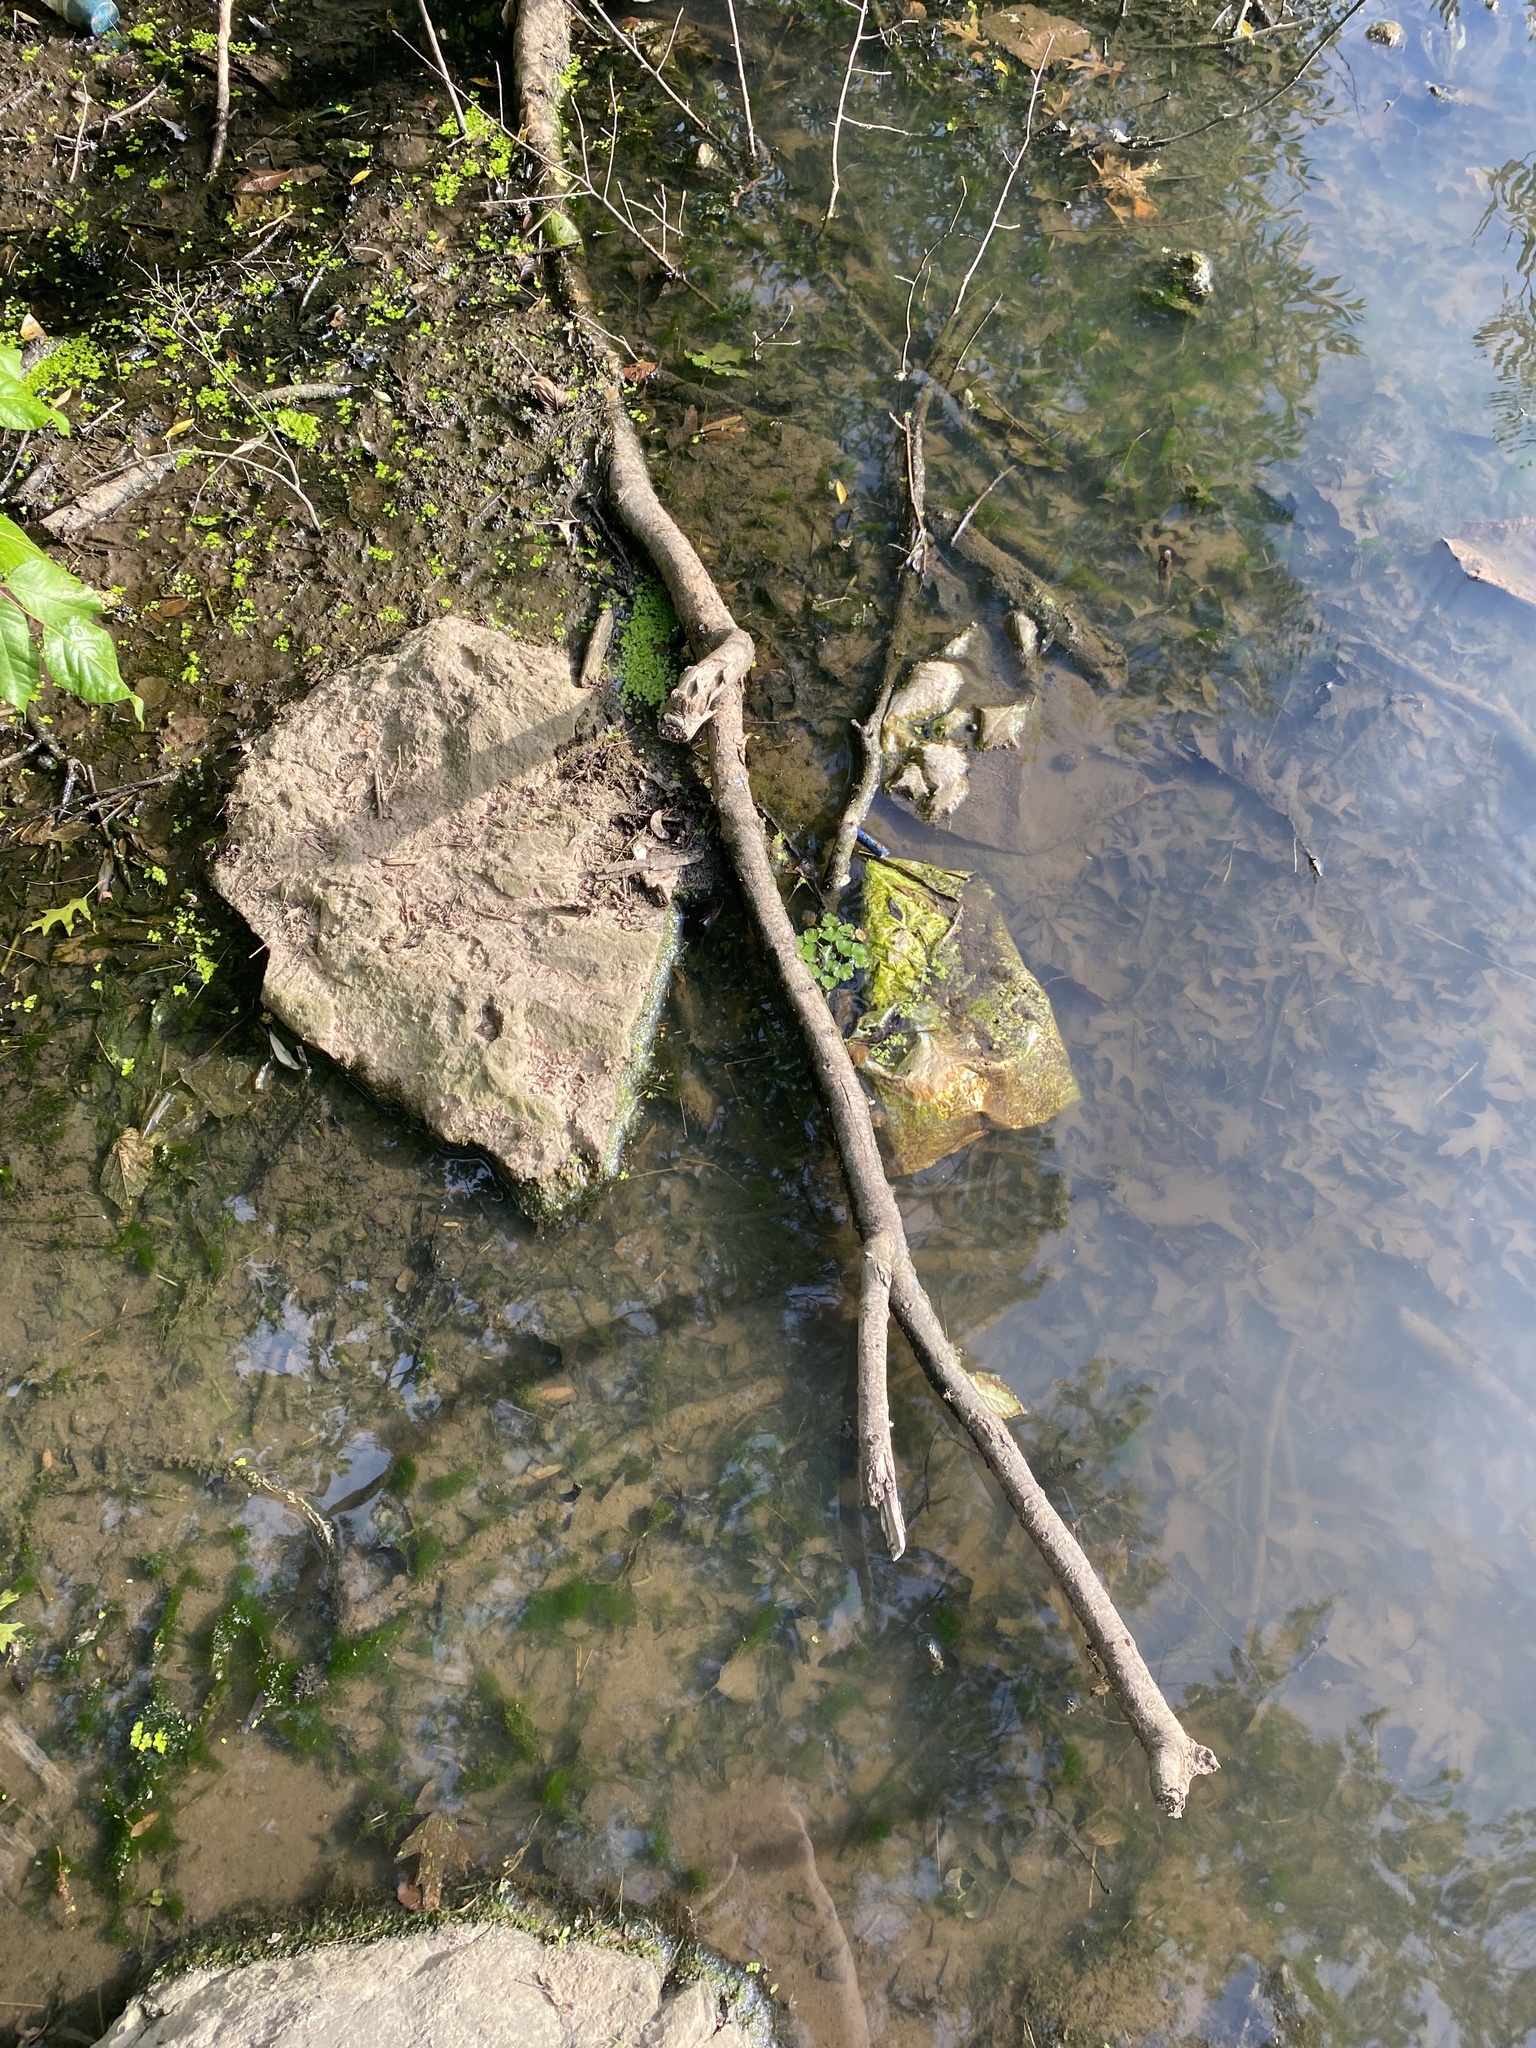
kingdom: Plantae
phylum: Tracheophyta
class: Magnoliopsida
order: Myrtales
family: Lythraceae
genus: Trapa
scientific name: Trapa natans
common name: Water chestnut
